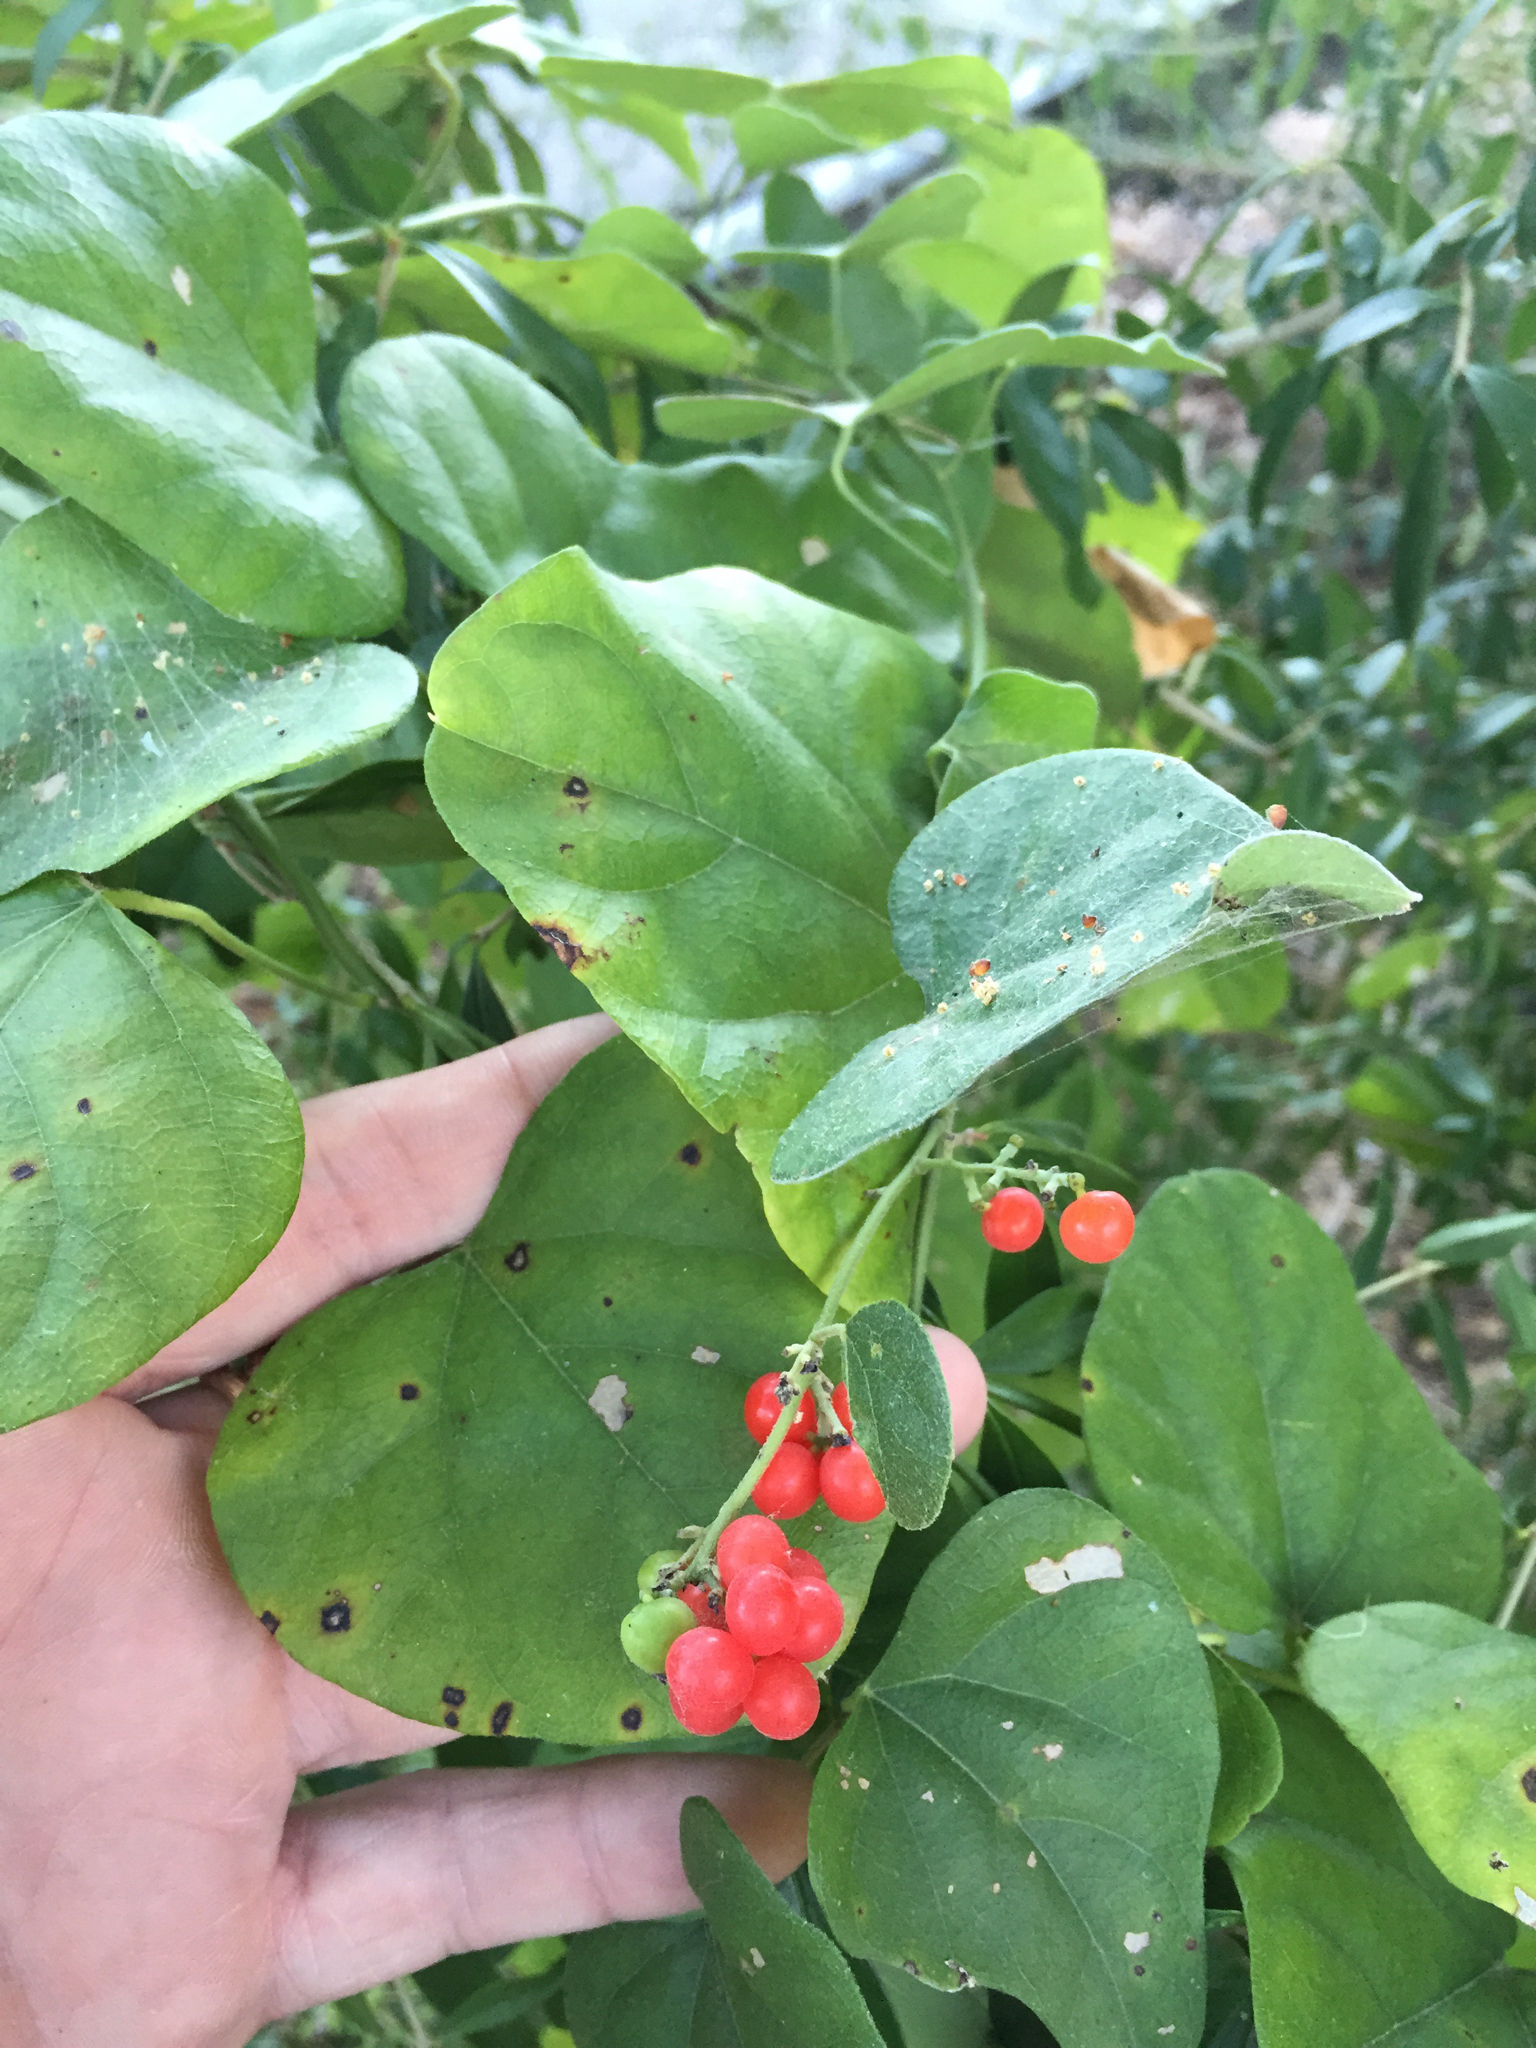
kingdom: Plantae
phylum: Tracheophyta
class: Magnoliopsida
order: Ranunculales
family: Menispermaceae
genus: Cocculus
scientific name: Cocculus carolinus
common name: Carolina moonseed
